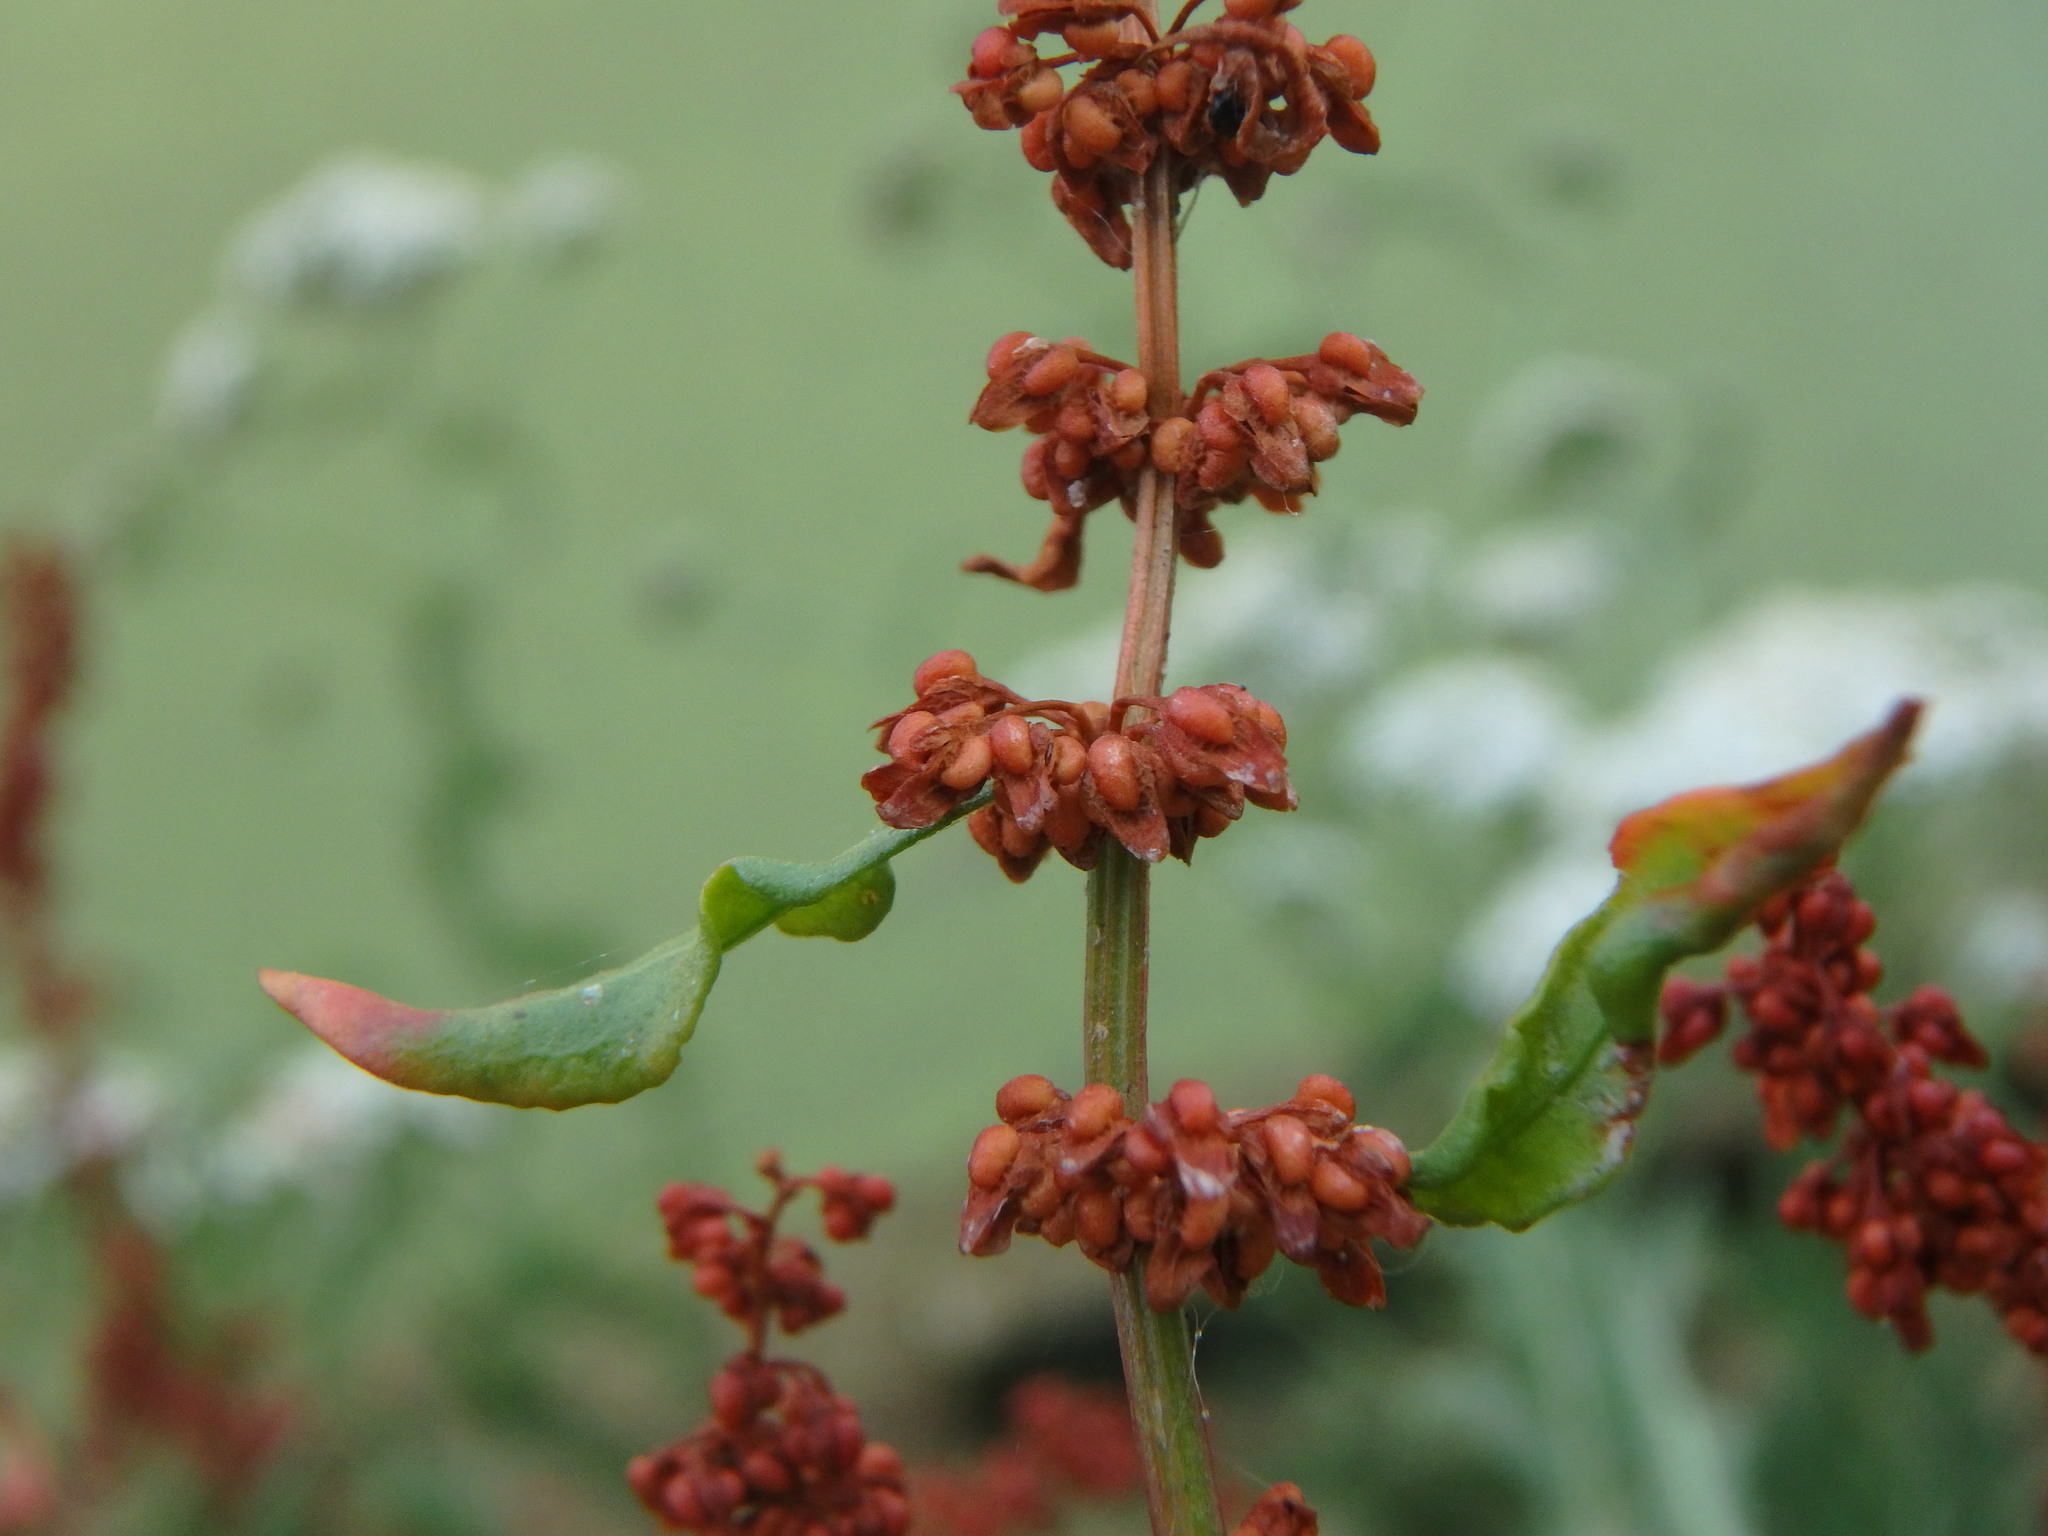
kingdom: Plantae
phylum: Tracheophyta
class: Magnoliopsida
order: Caryophyllales
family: Polygonaceae
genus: Rumex
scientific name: Rumex conglomeratus
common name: Clustered dock
